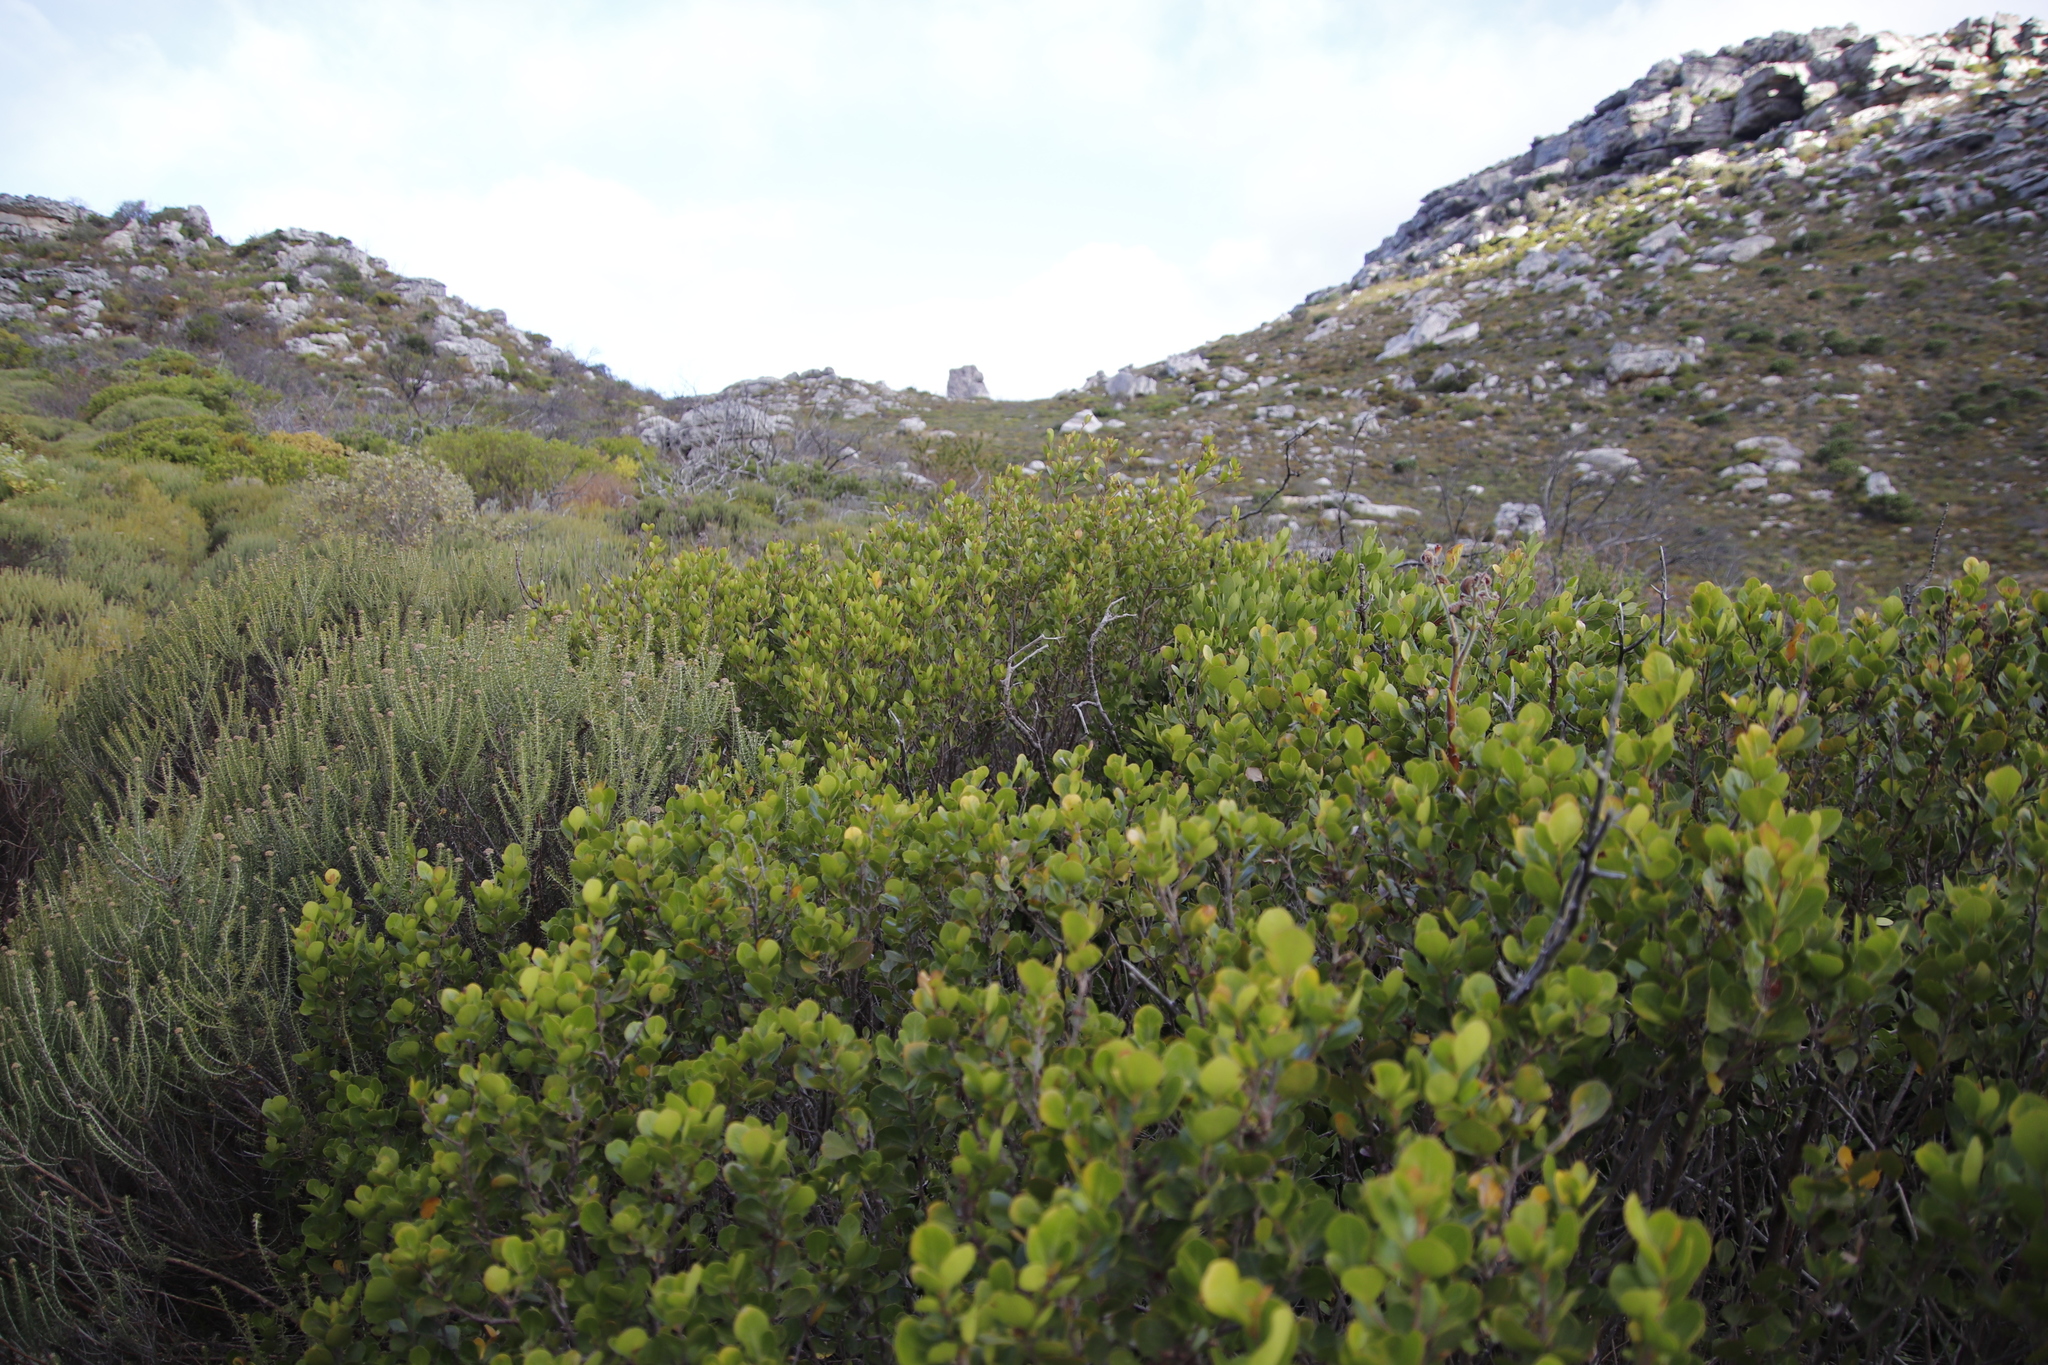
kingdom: Plantae
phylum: Tracheophyta
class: Magnoliopsida
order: Sapindales
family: Anacardiaceae
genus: Searsia
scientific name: Searsia lucida
